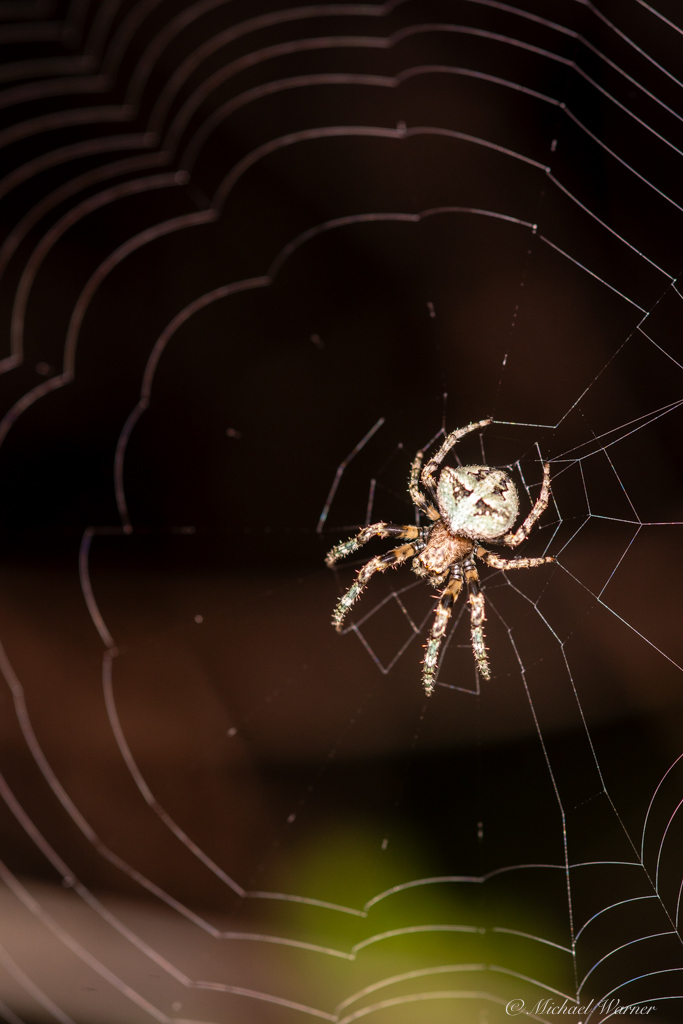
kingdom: Animalia
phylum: Arthropoda
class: Arachnida
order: Araneae
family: Araneidae
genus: Araneus
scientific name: Araneus andrewsi
